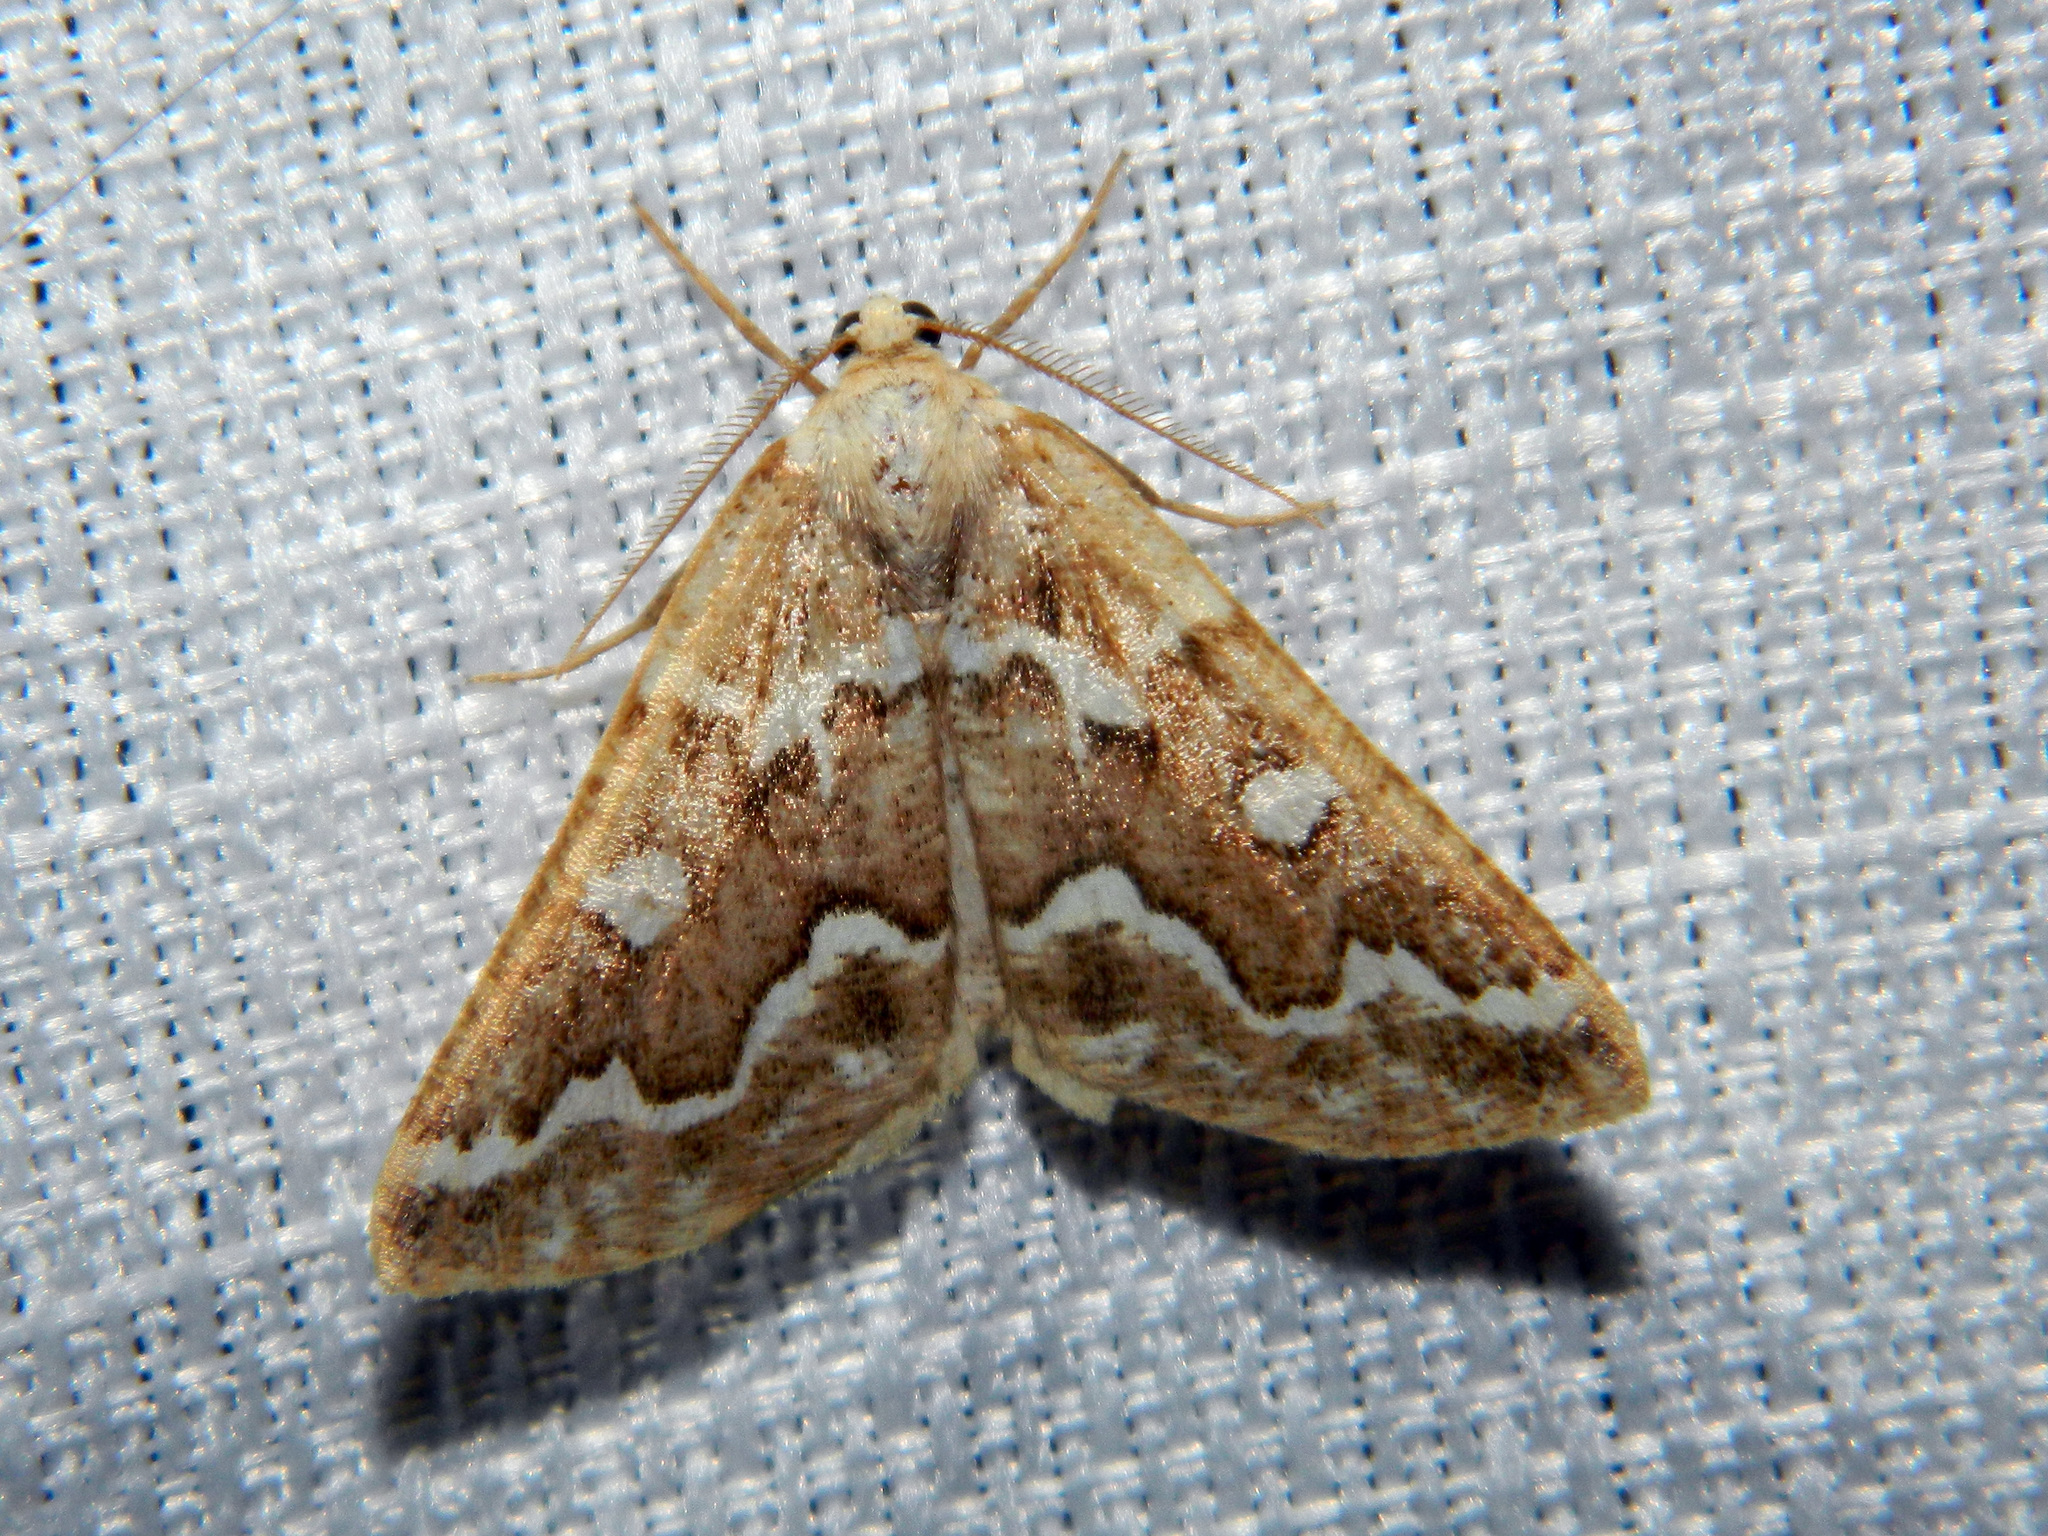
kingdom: Animalia
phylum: Arthropoda
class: Insecta
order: Lepidoptera
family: Geometridae
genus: Caripeta
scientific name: Caripeta divisata
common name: Gray spruce looper
